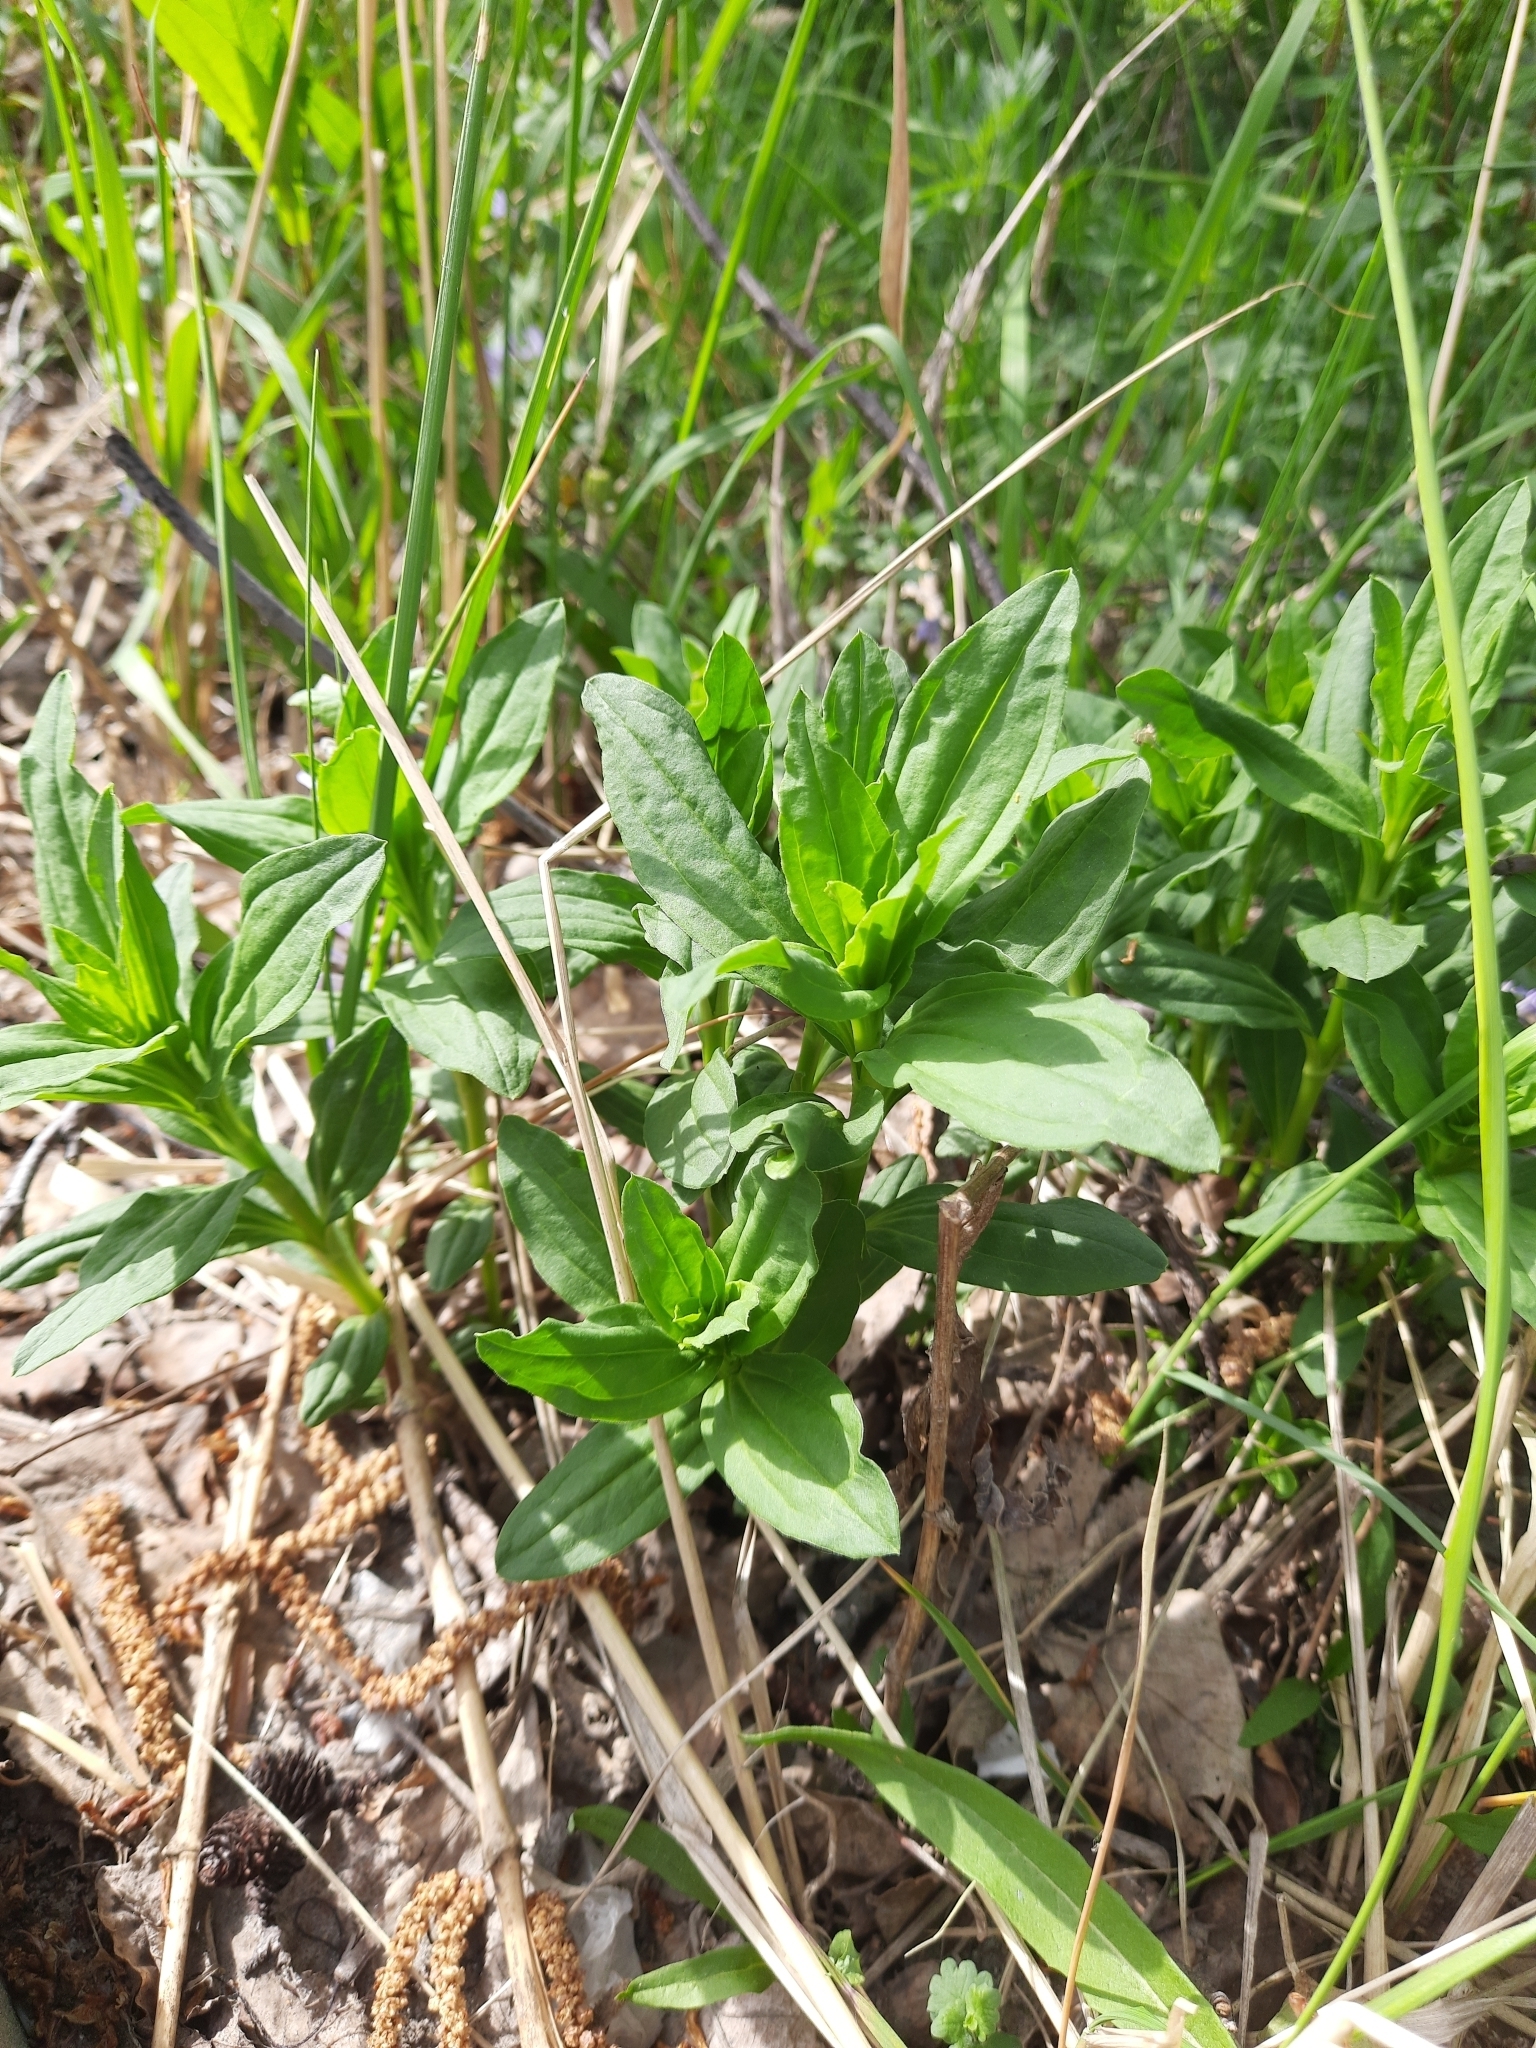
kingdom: Plantae
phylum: Tracheophyta
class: Magnoliopsida
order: Caryophyllales
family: Caryophyllaceae
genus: Saponaria
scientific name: Saponaria officinalis
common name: Soapwort
